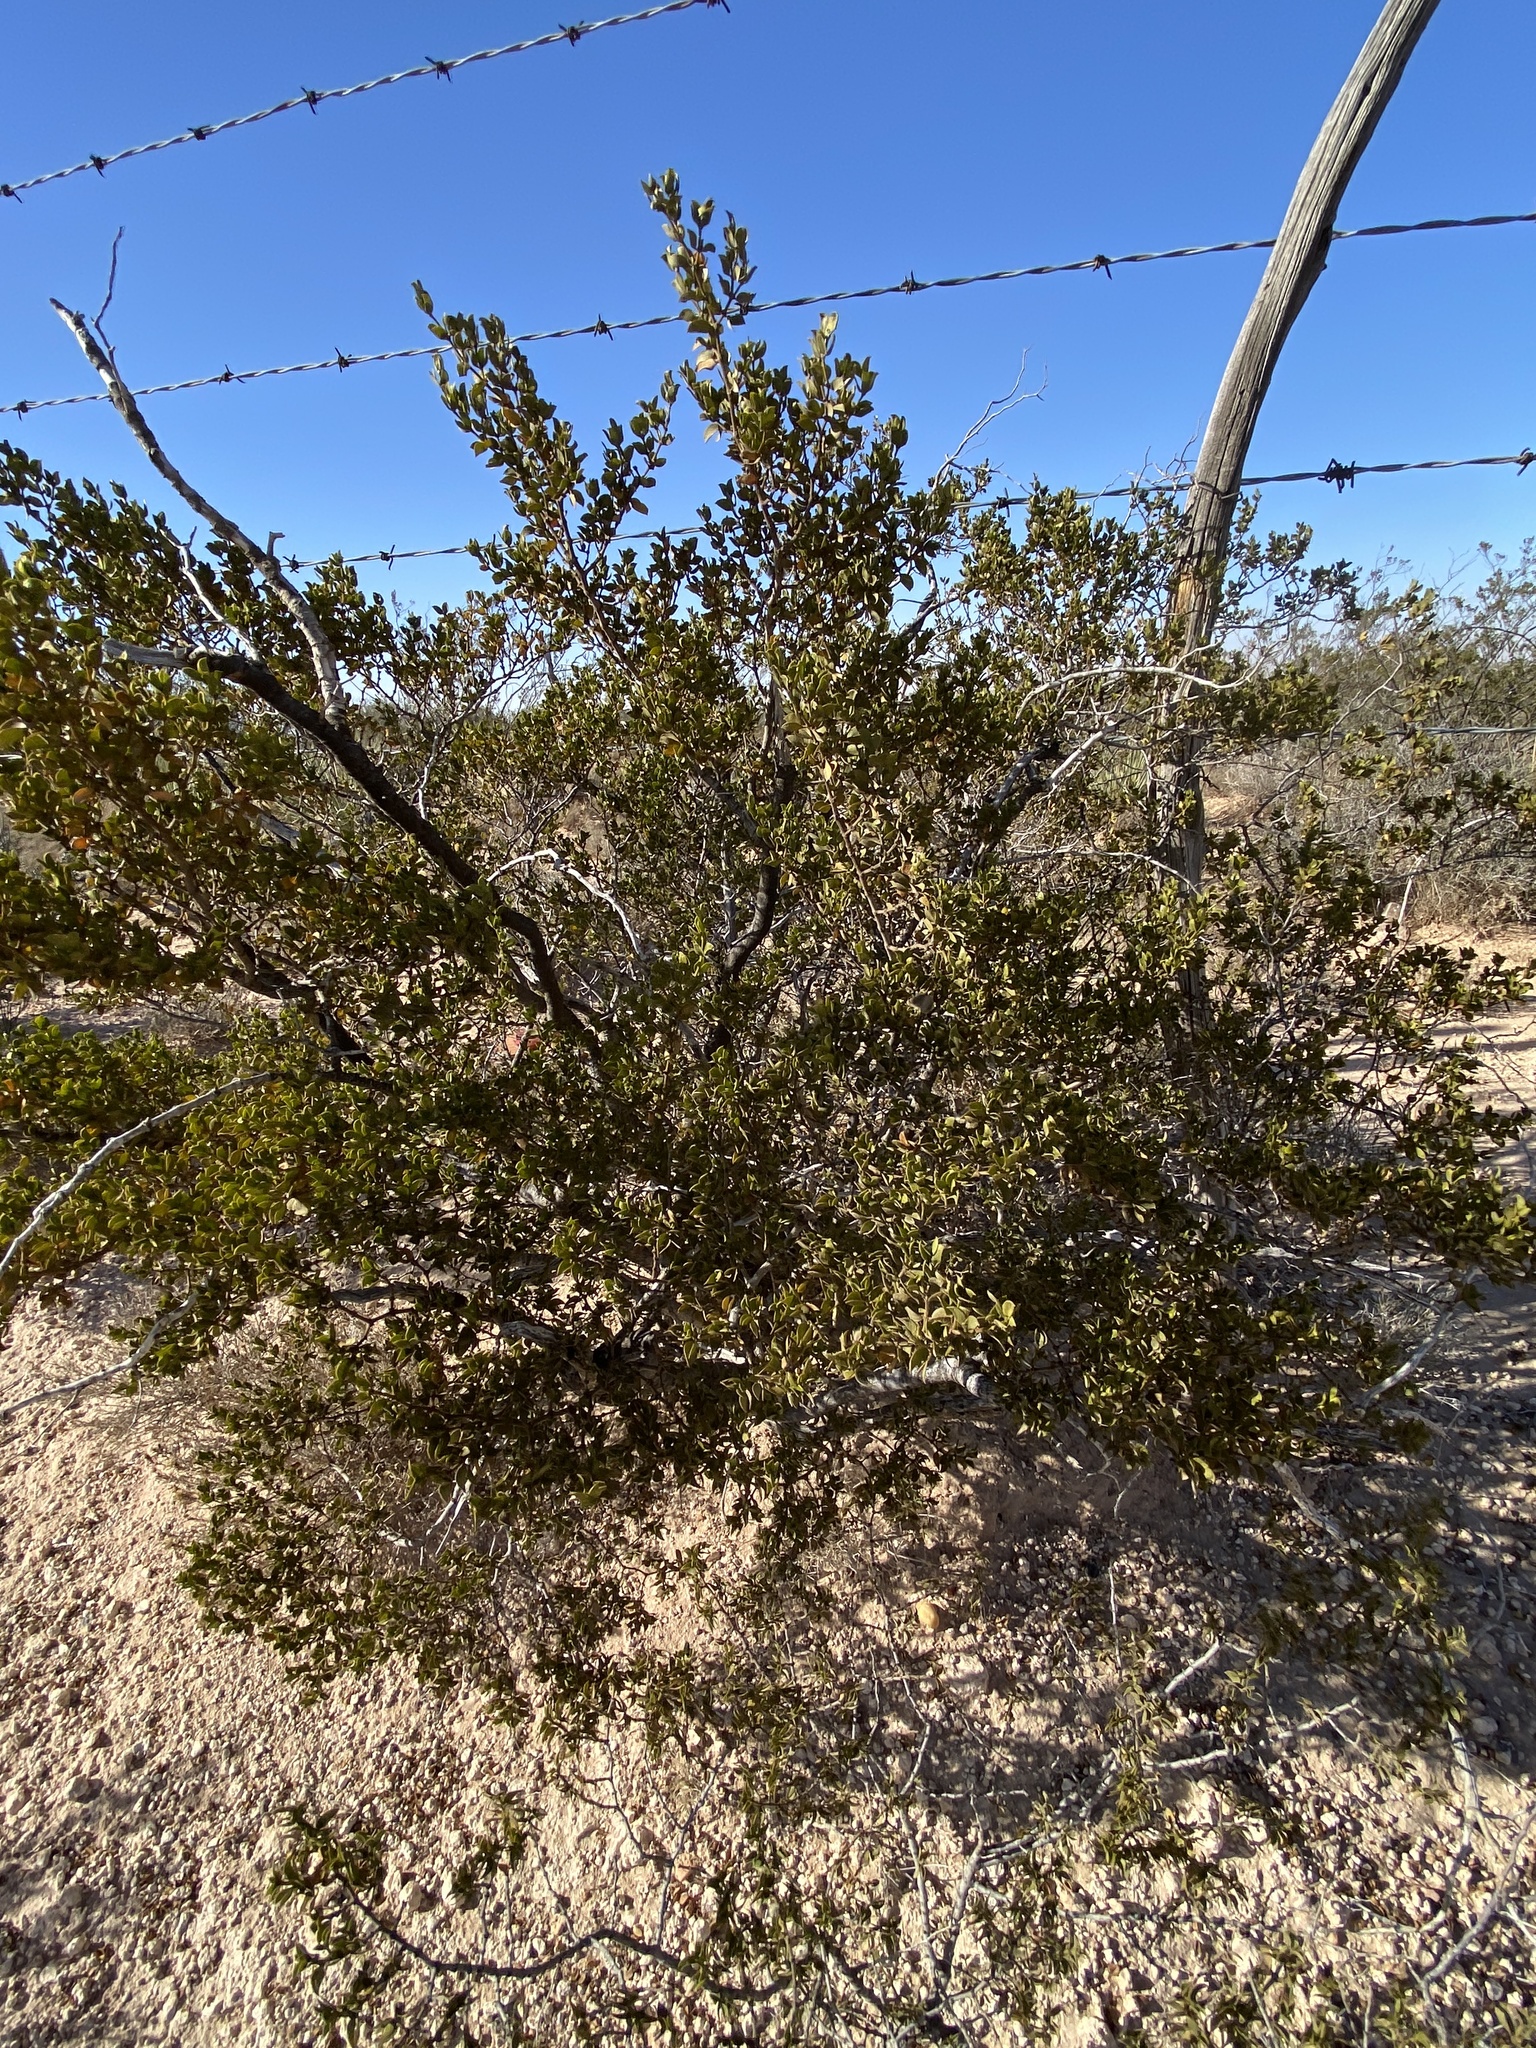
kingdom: Plantae
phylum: Tracheophyta
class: Magnoliopsida
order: Zygophyllales
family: Zygophyllaceae
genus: Larrea
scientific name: Larrea tridentata
